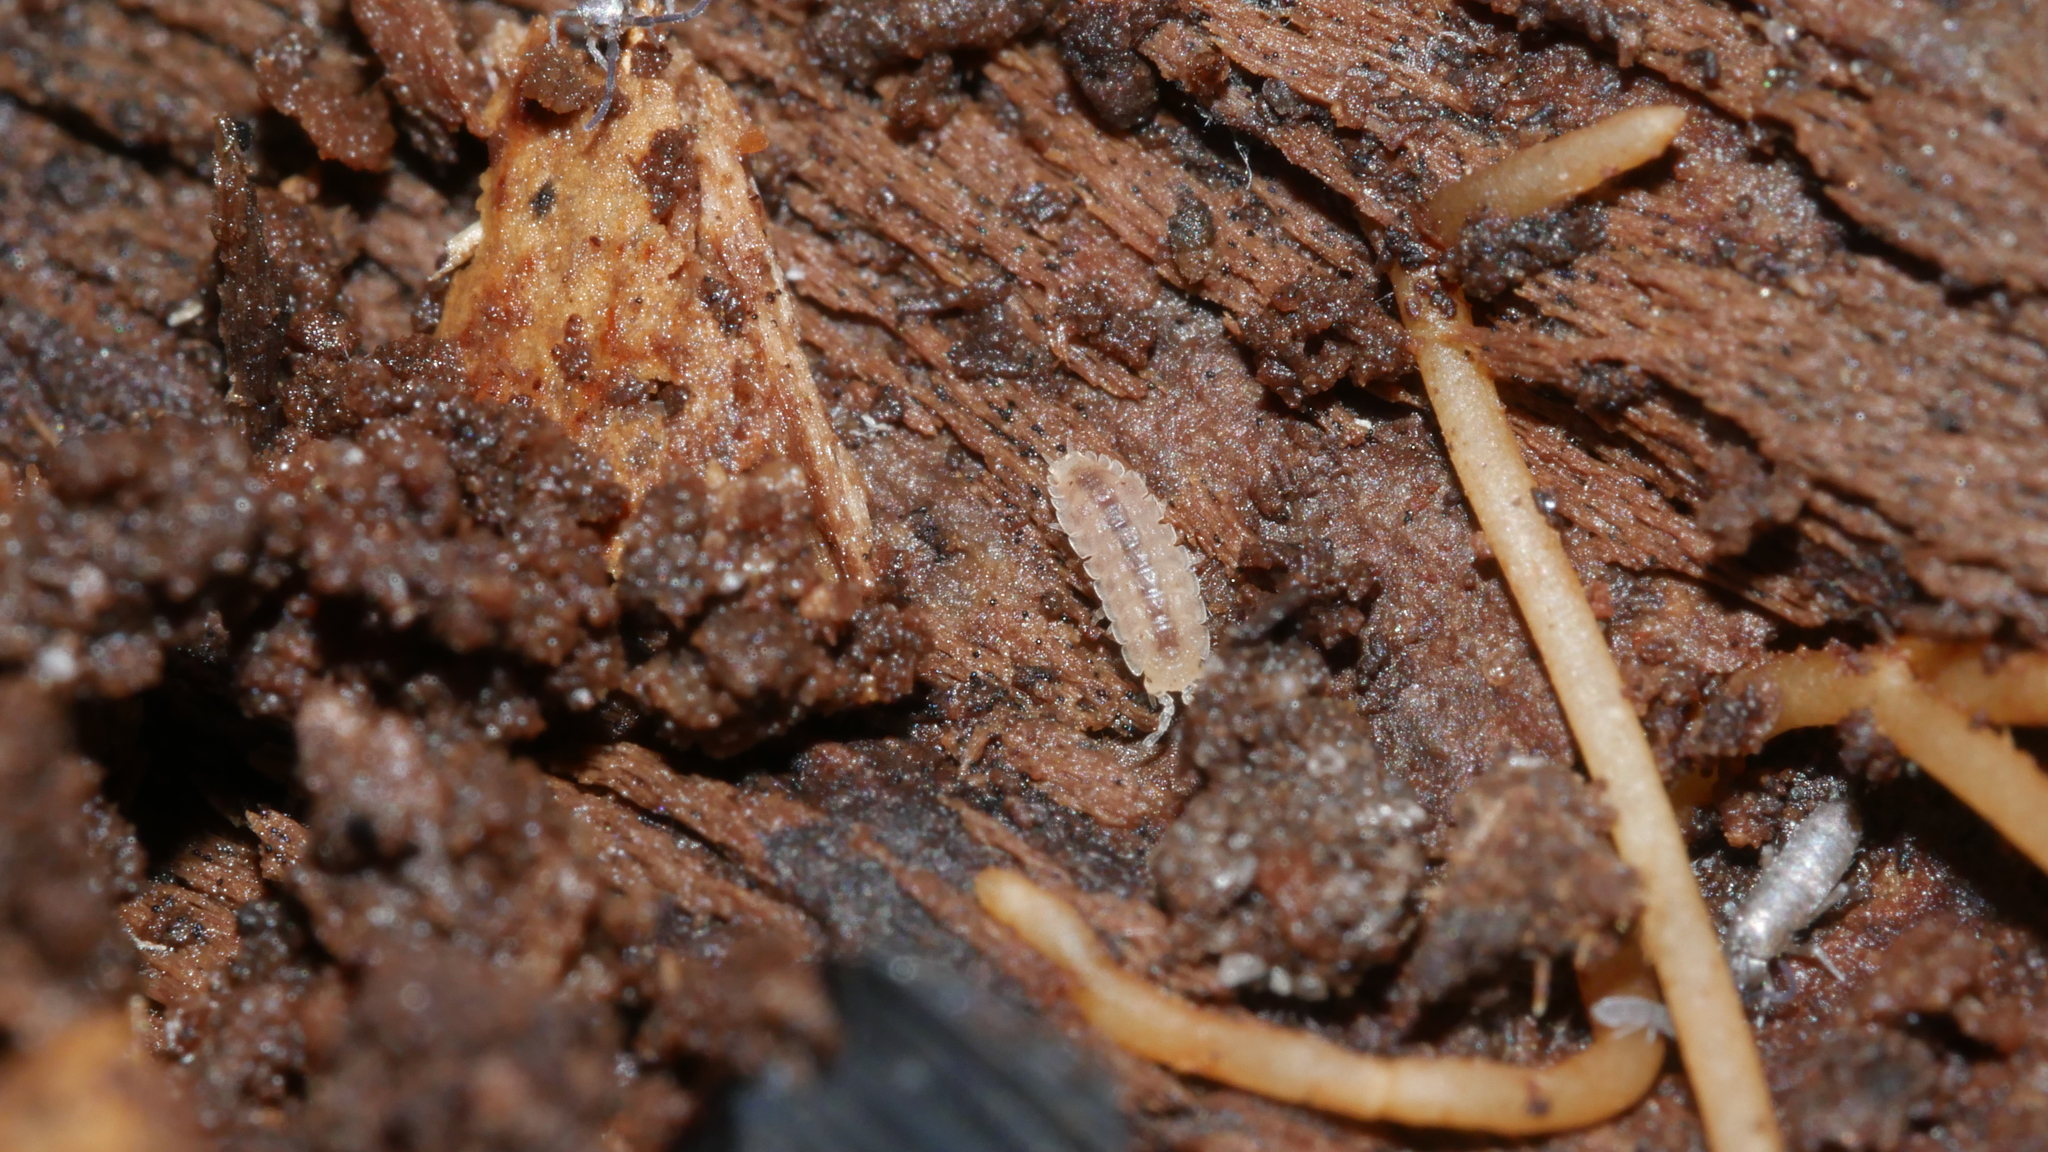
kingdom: Animalia
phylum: Arthropoda
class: Malacostraca
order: Isopoda
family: Trichoniscidae
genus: Haplophthalmus
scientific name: Haplophthalmus danicus
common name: Pillbug
